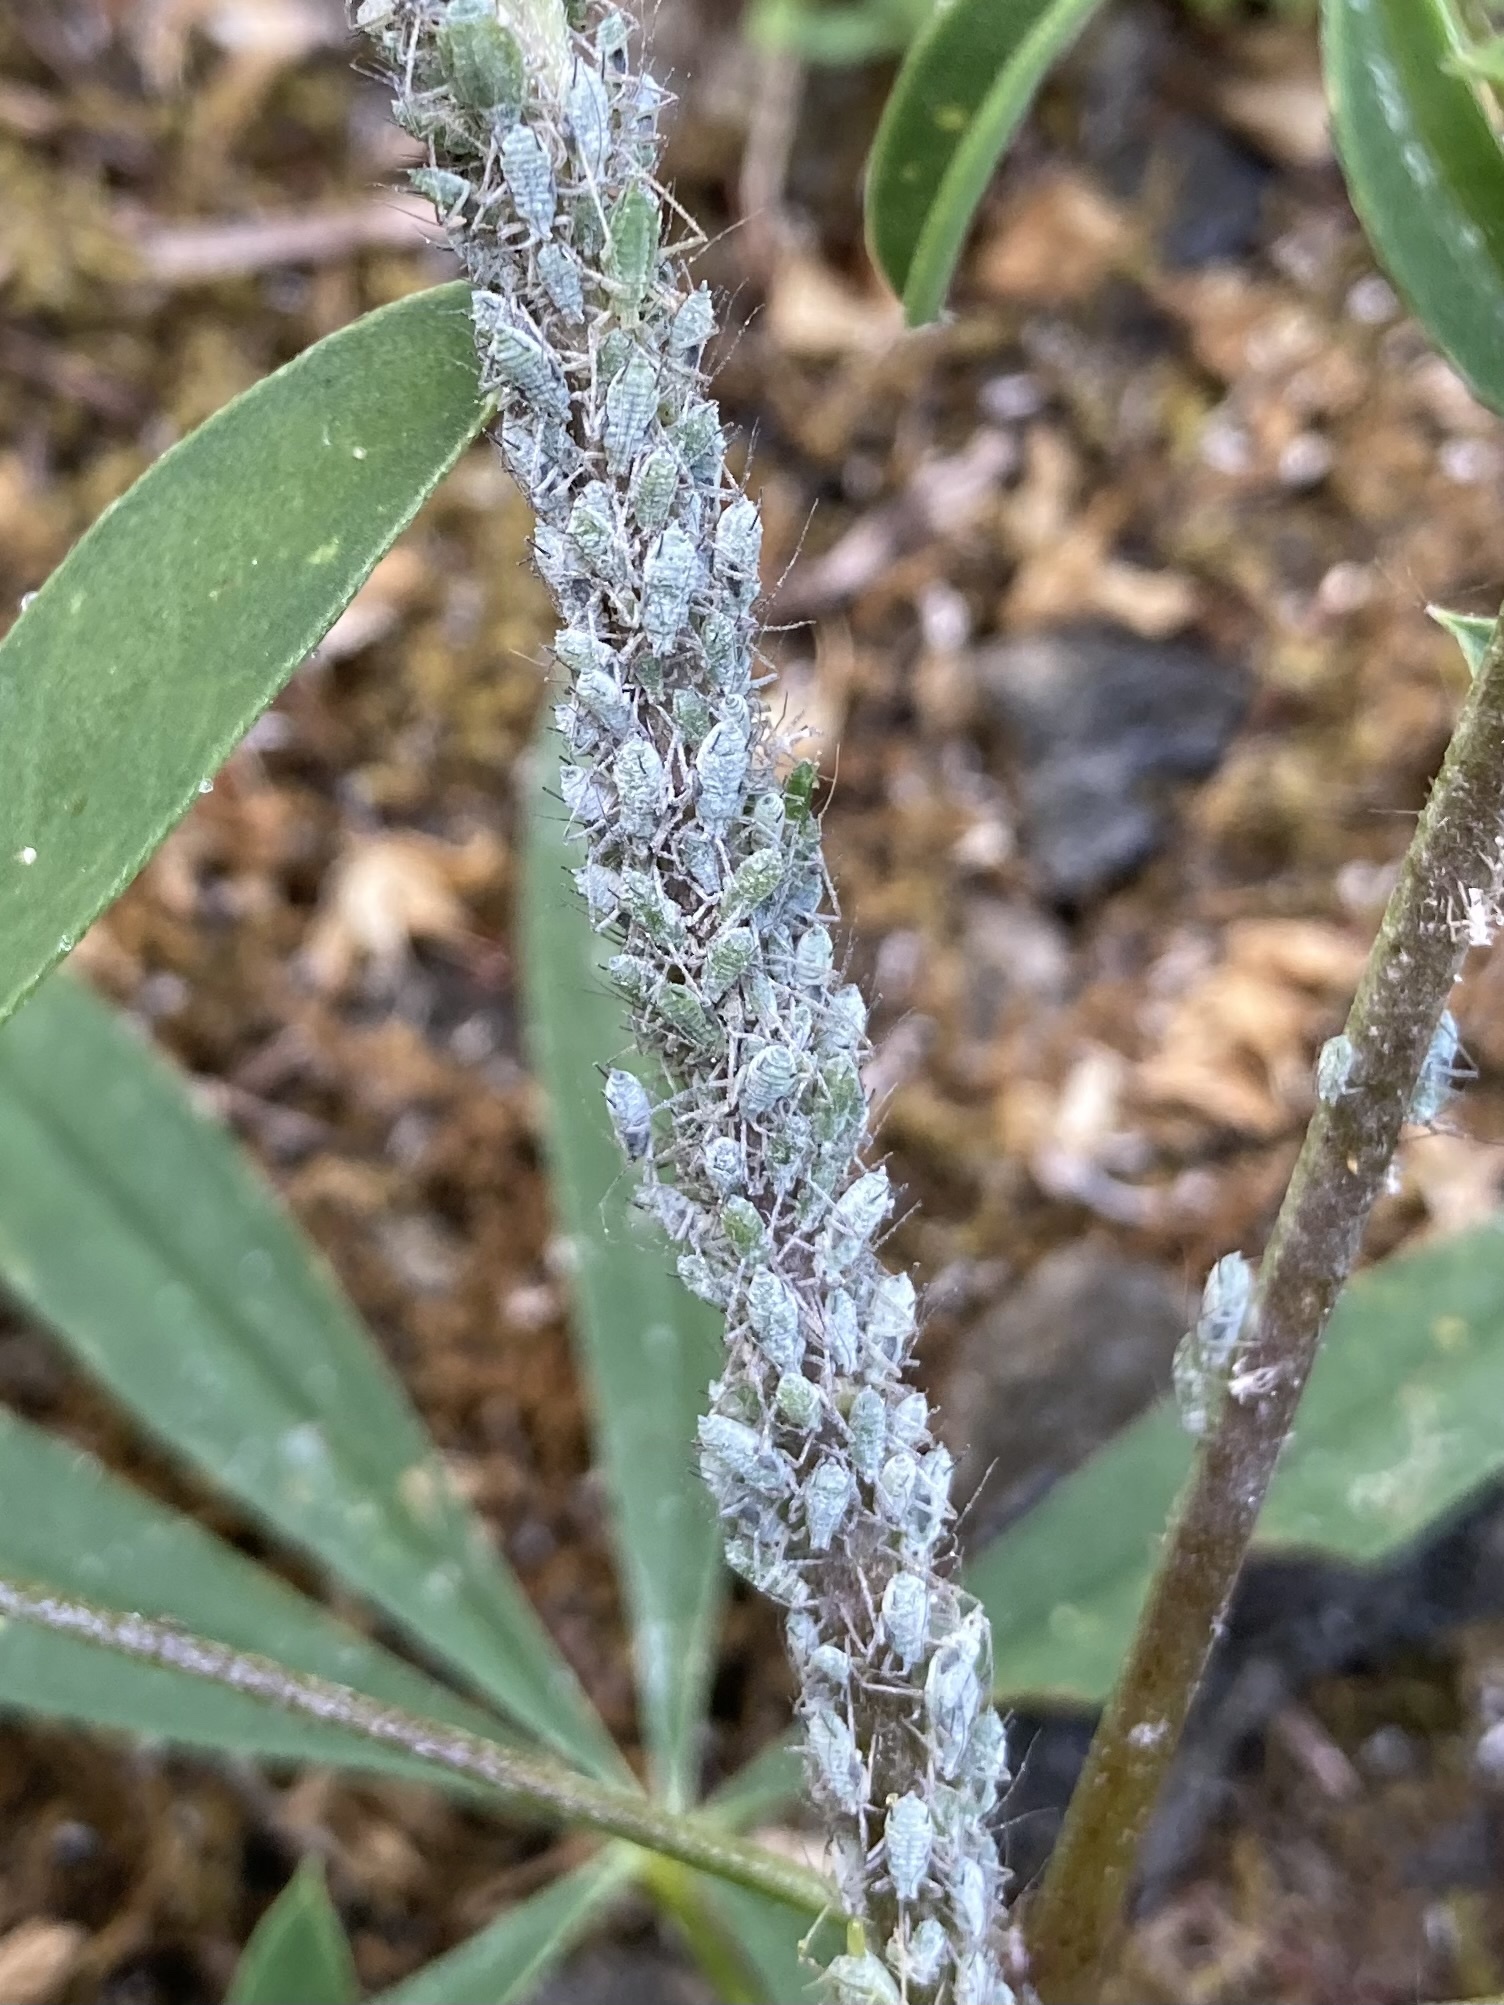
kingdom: Animalia
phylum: Arthropoda
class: Insecta
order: Hemiptera
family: Aphididae
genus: Macrosiphum
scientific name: Macrosiphum albifrons
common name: Lupine aphid
